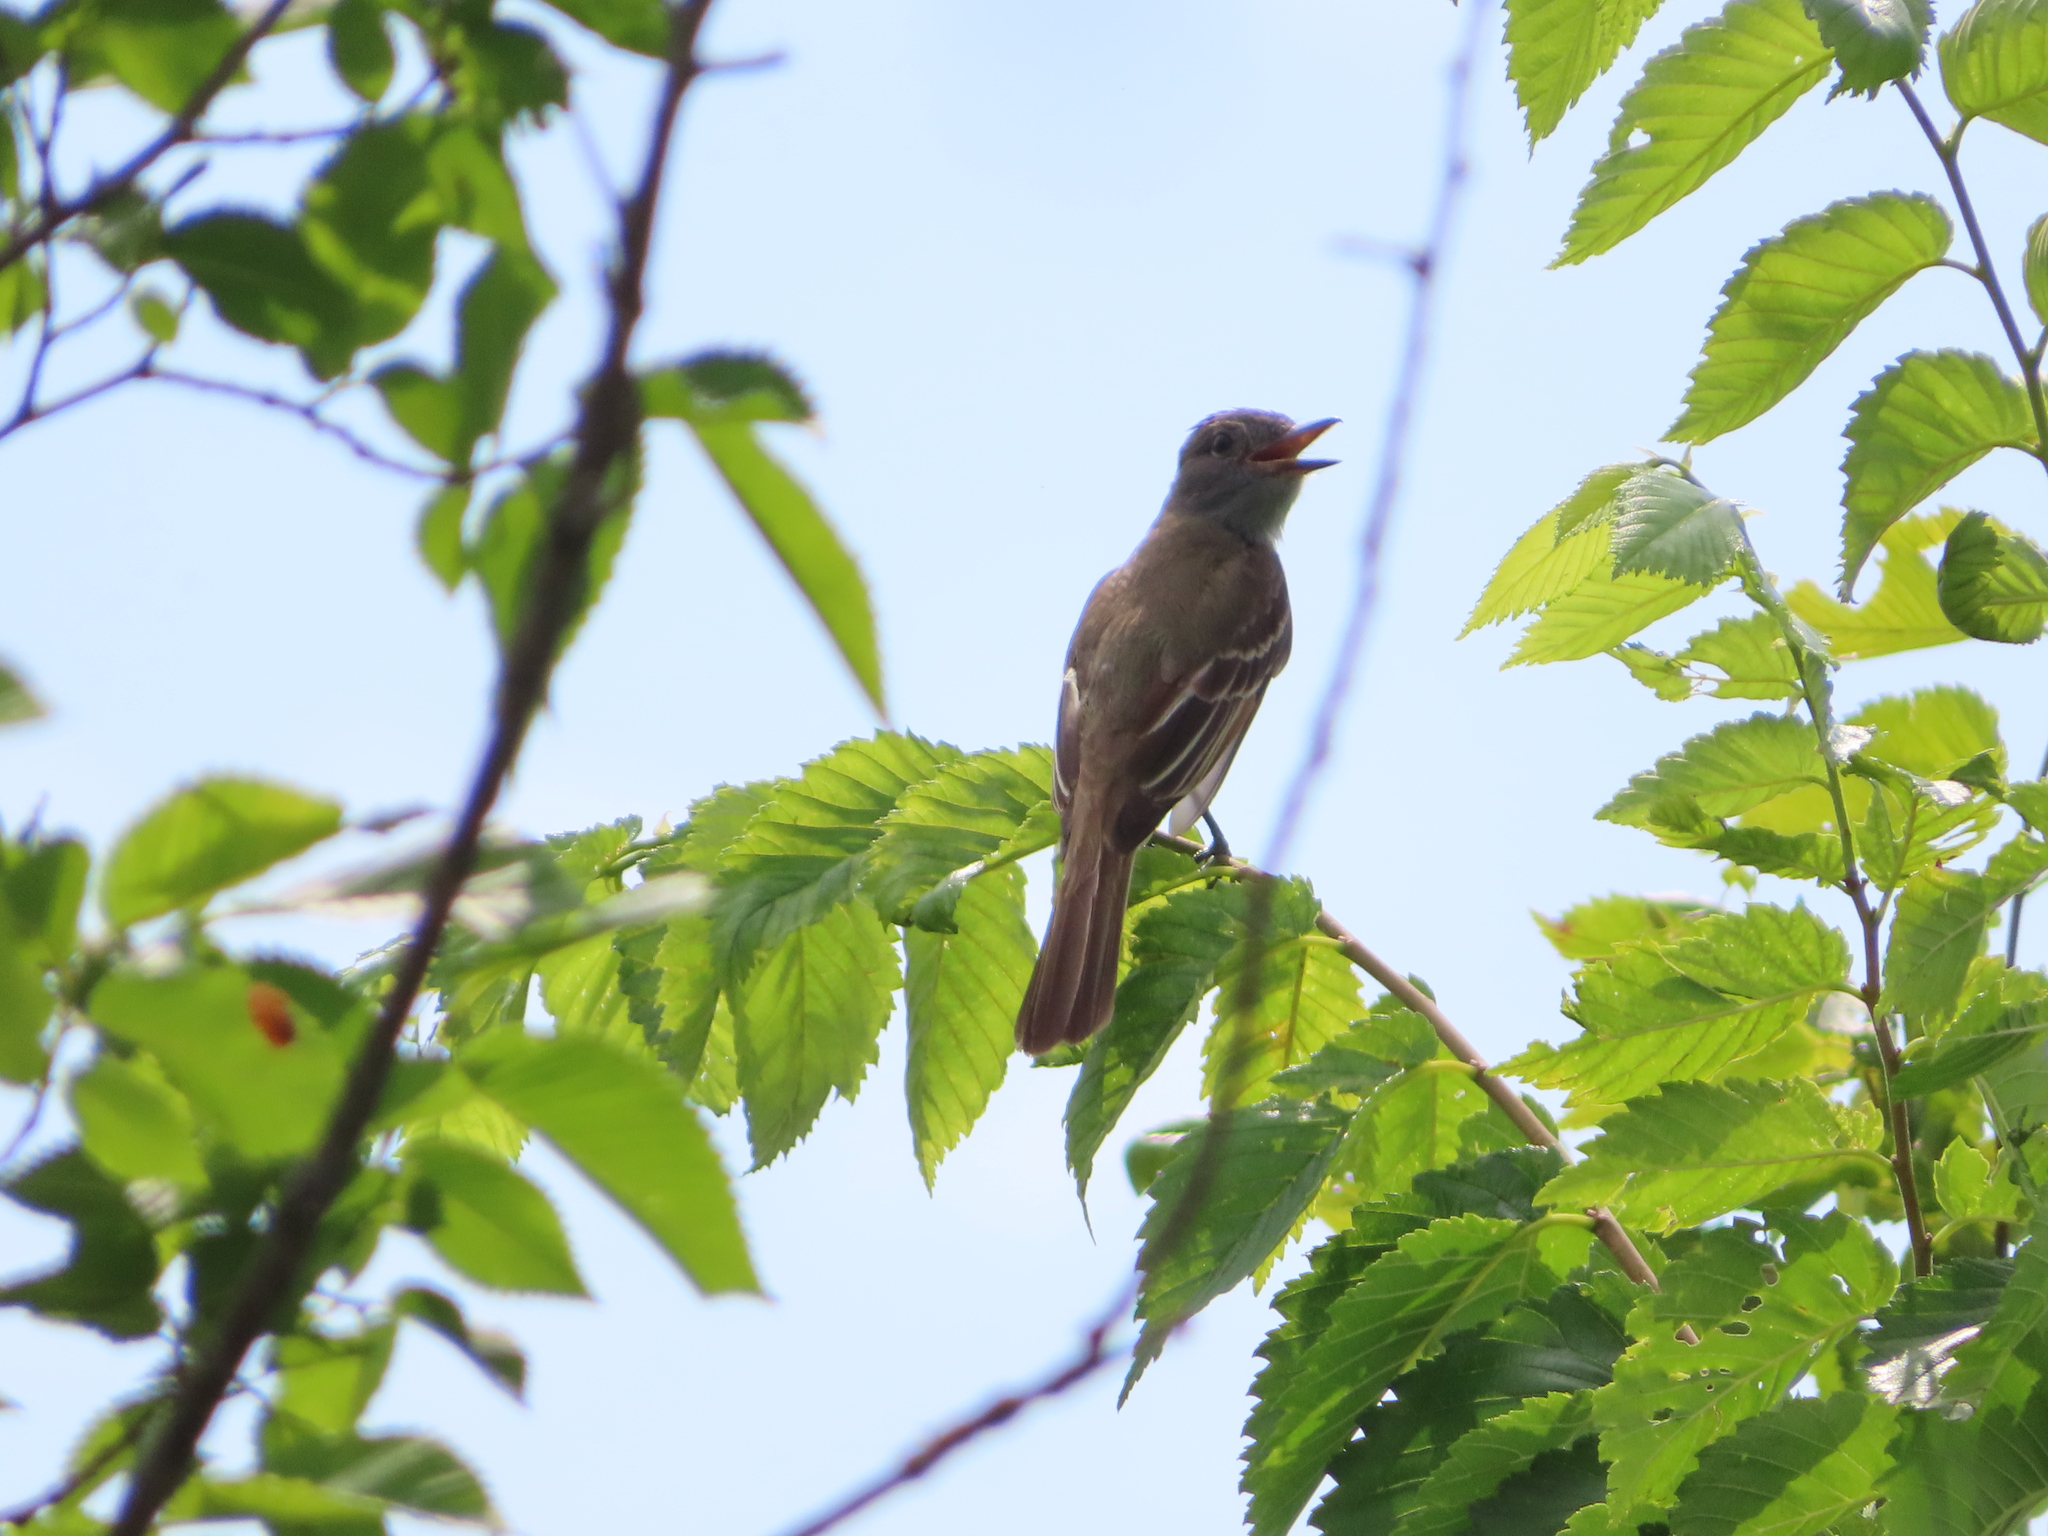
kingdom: Animalia
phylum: Chordata
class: Aves
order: Passeriformes
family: Tyrannidae
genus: Myiarchus
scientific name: Myiarchus crinitus
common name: Great crested flycatcher
